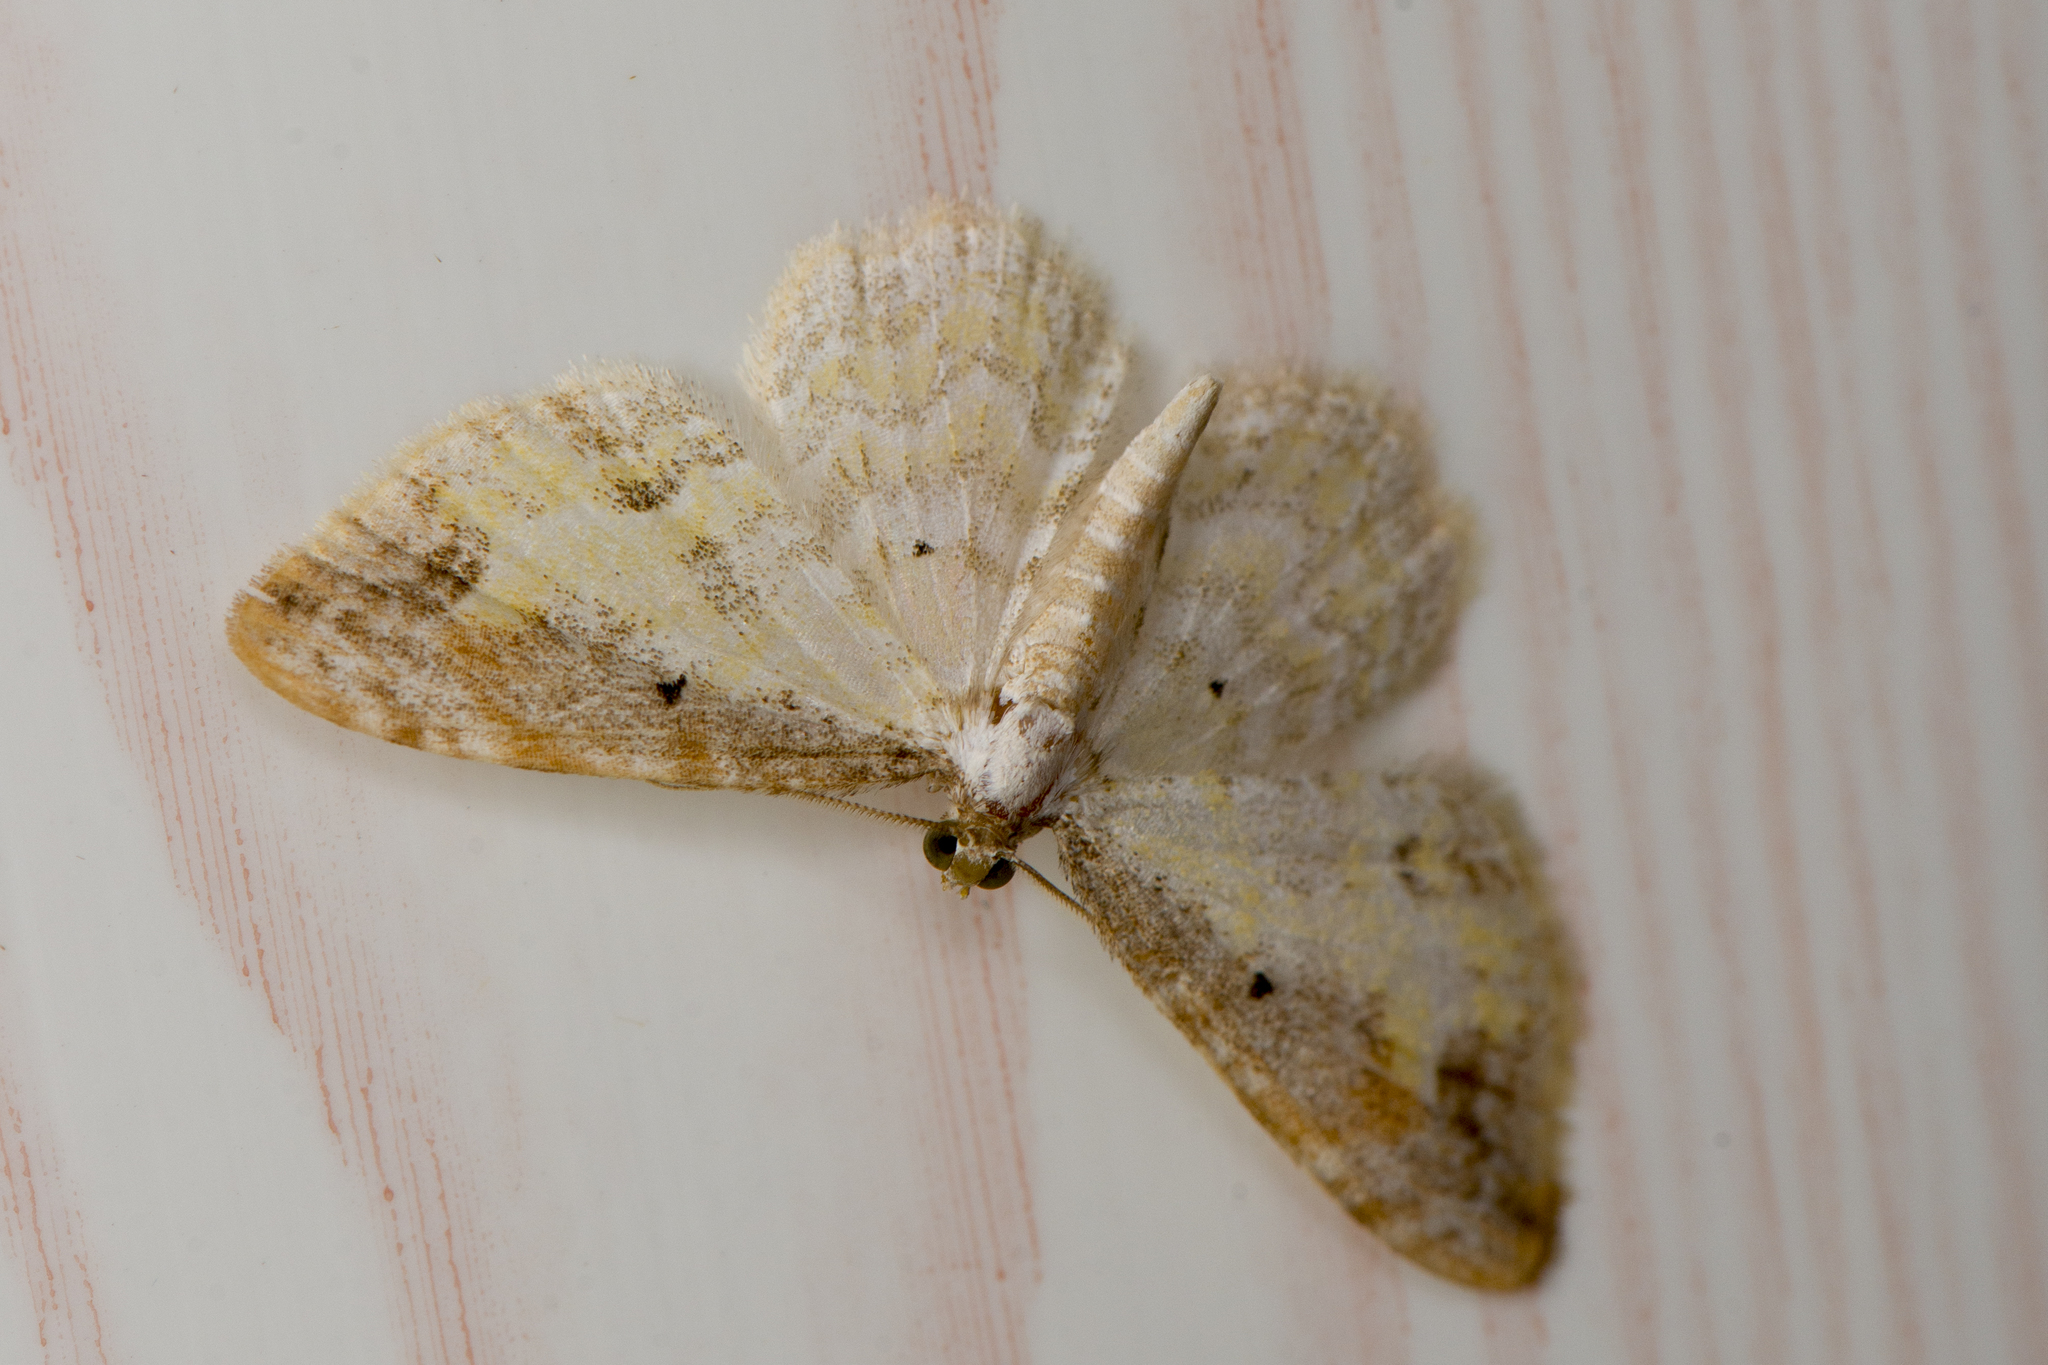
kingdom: Animalia
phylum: Arthropoda
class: Insecta
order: Lepidoptera
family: Geometridae
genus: Acolutha
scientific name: Acolutha pictaria
